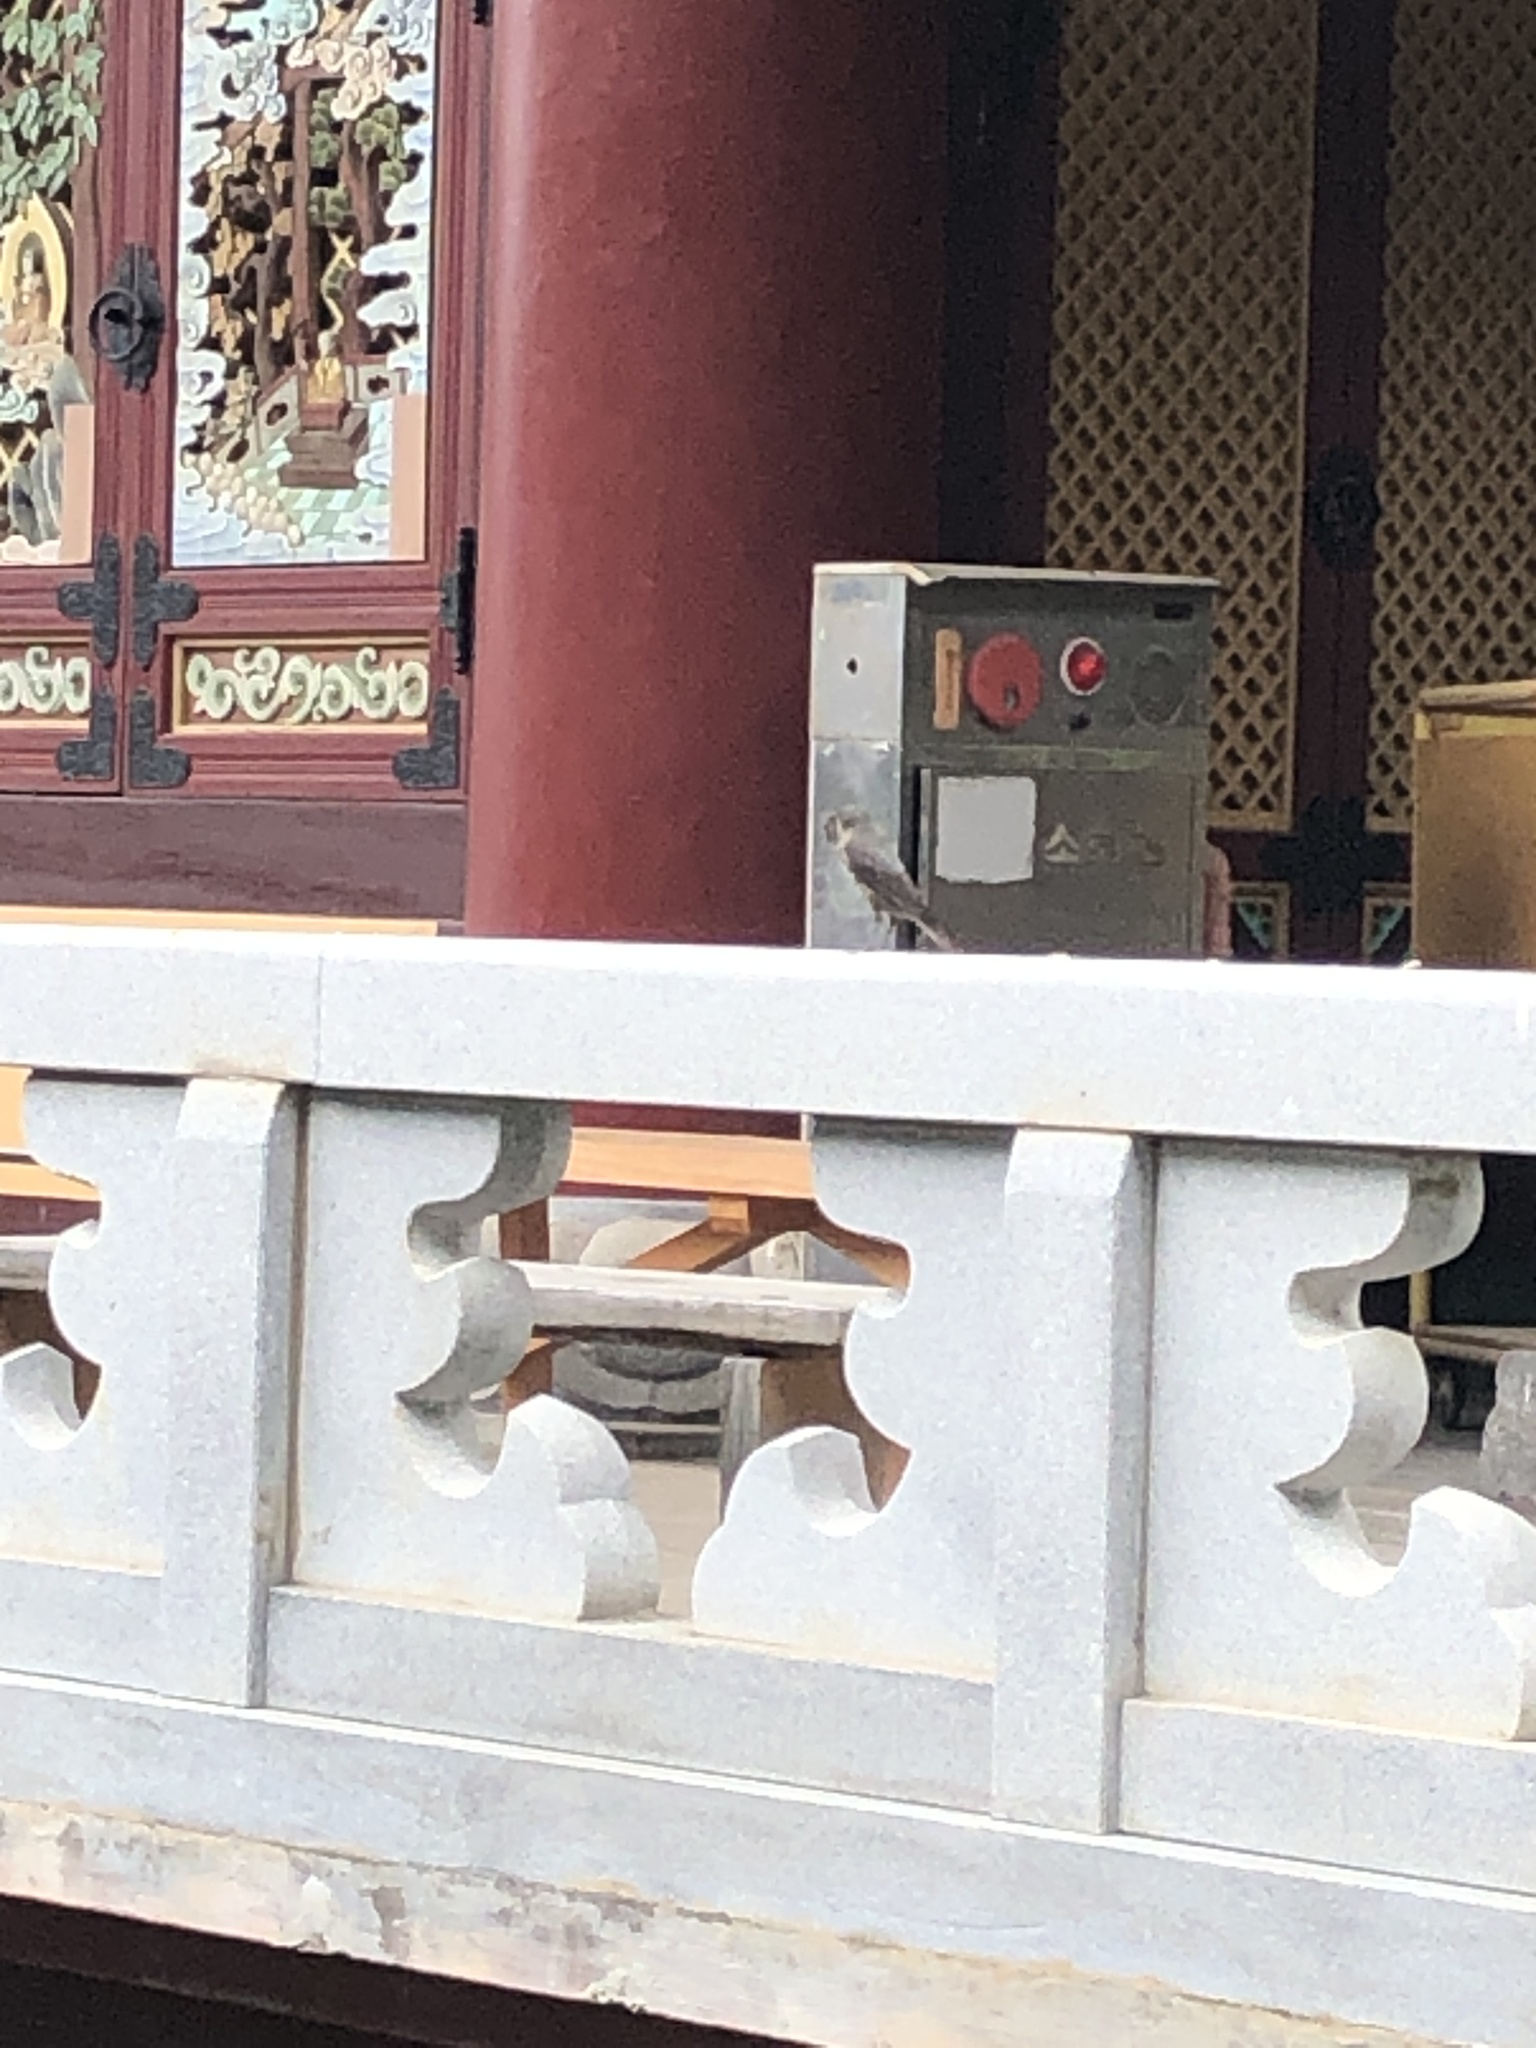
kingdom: Animalia
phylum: Chordata
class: Aves
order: Passeriformes
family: Muscicapidae
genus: Monticola
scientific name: Monticola solitarius
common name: Blue rock thrush
